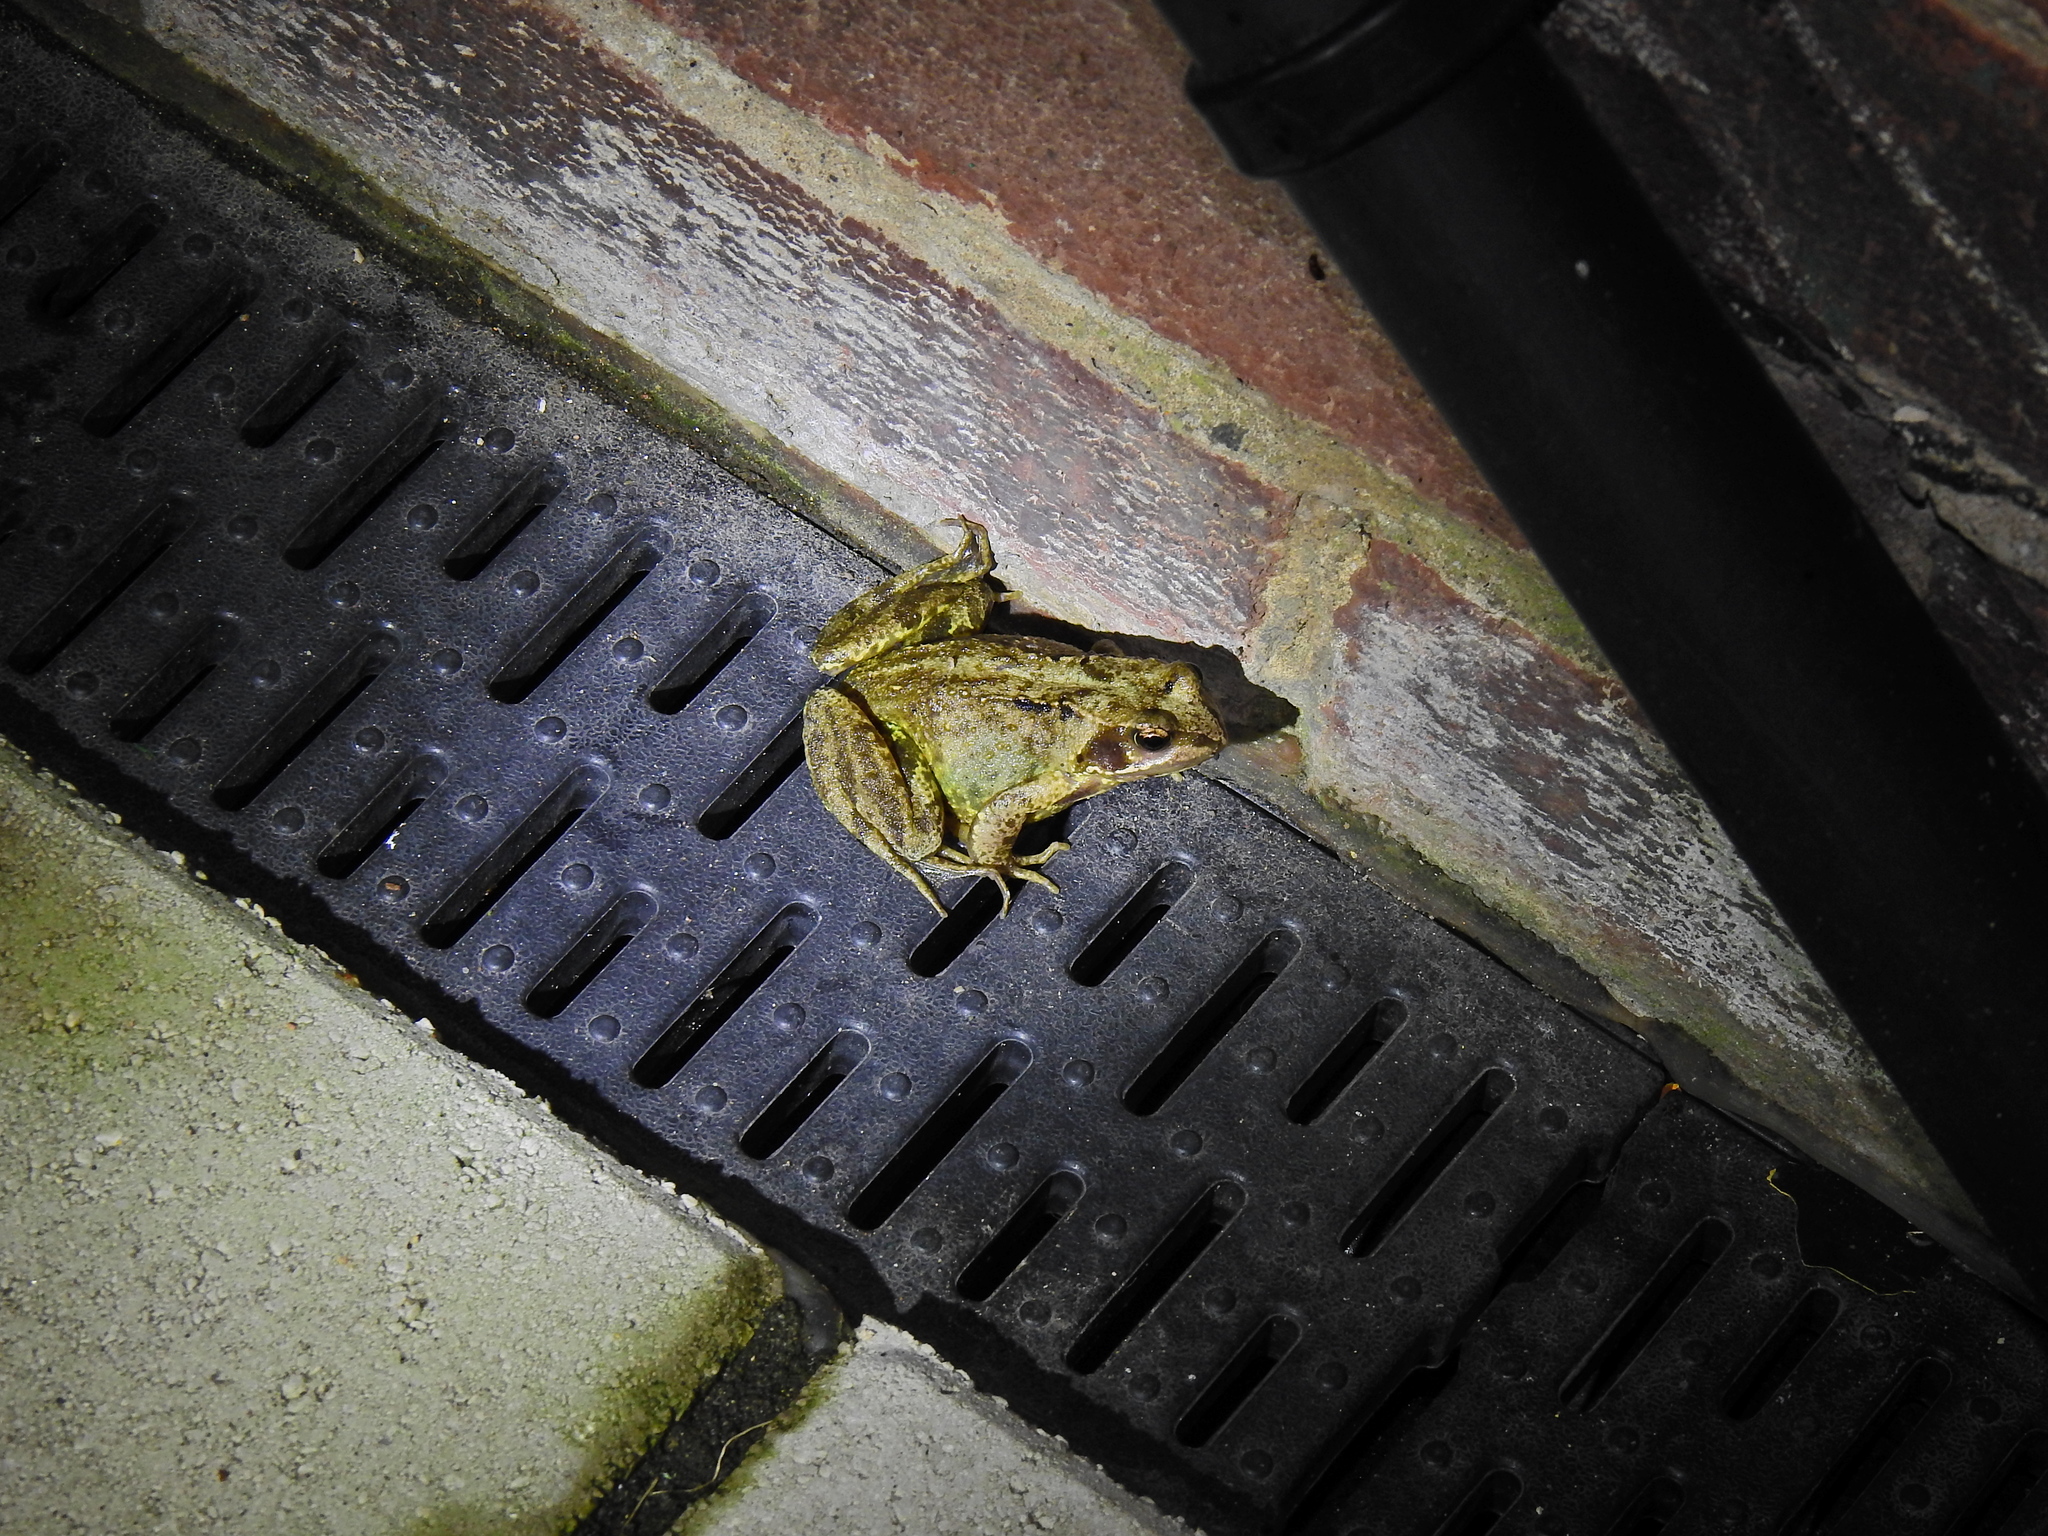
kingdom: Animalia
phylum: Chordata
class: Amphibia
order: Anura
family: Ranidae
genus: Rana
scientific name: Rana temporaria
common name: Common frog
